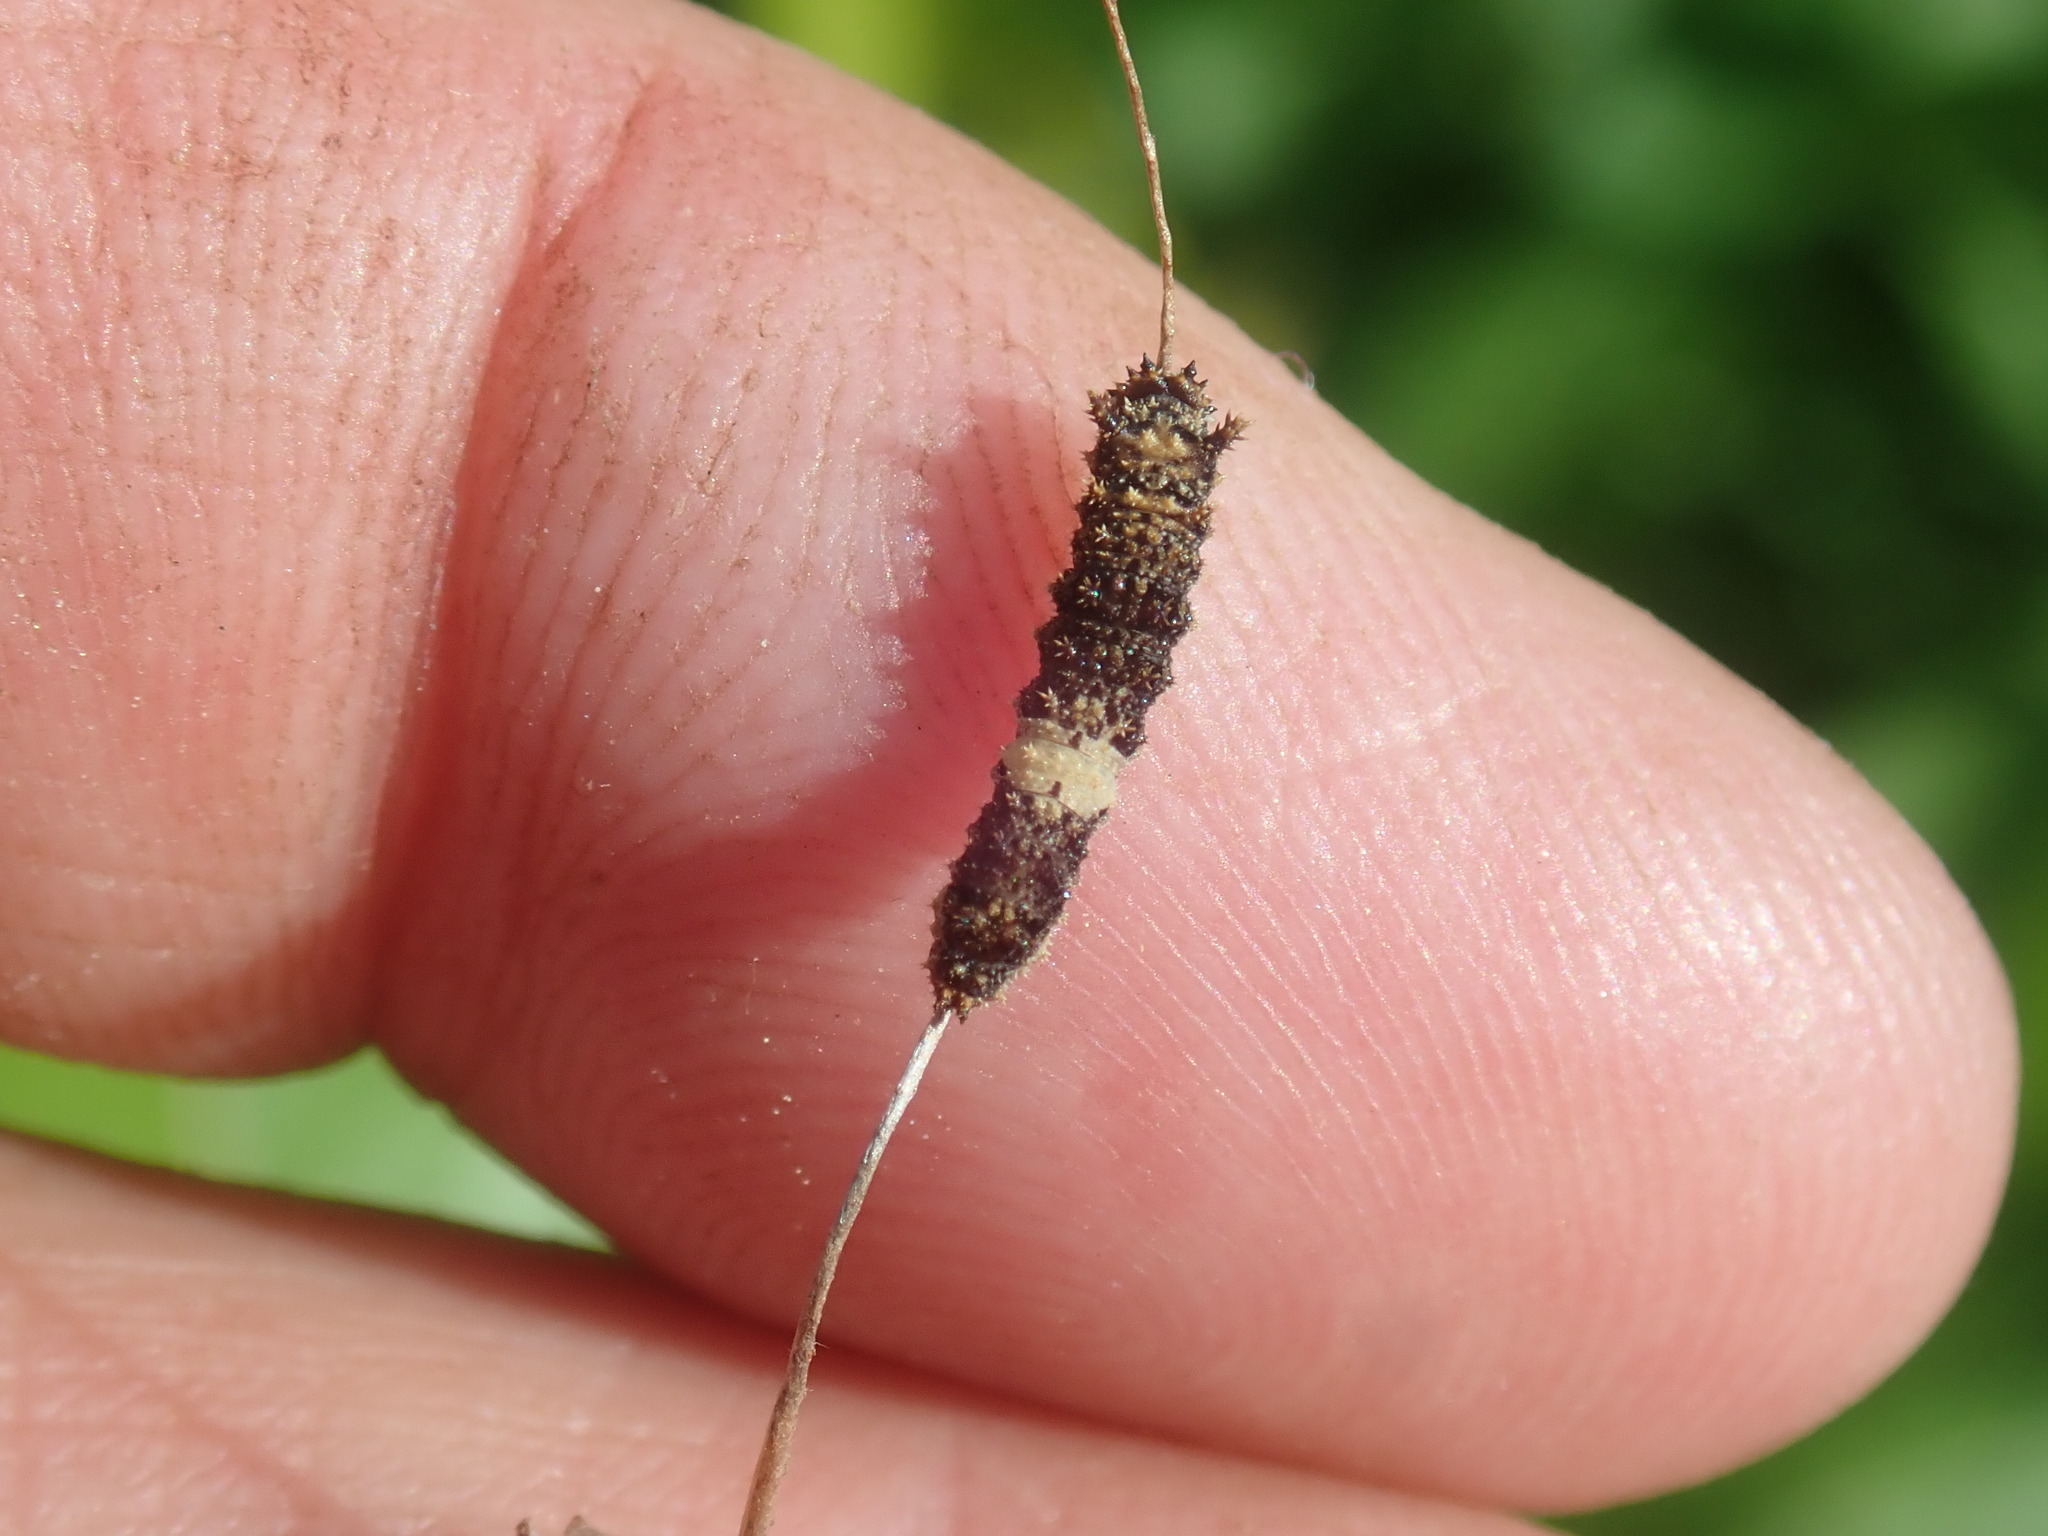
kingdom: Animalia
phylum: Arthropoda
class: Insecta
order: Lepidoptera
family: Nymphalidae
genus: Limenitis
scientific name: Limenitis archippus
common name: Viceroy
